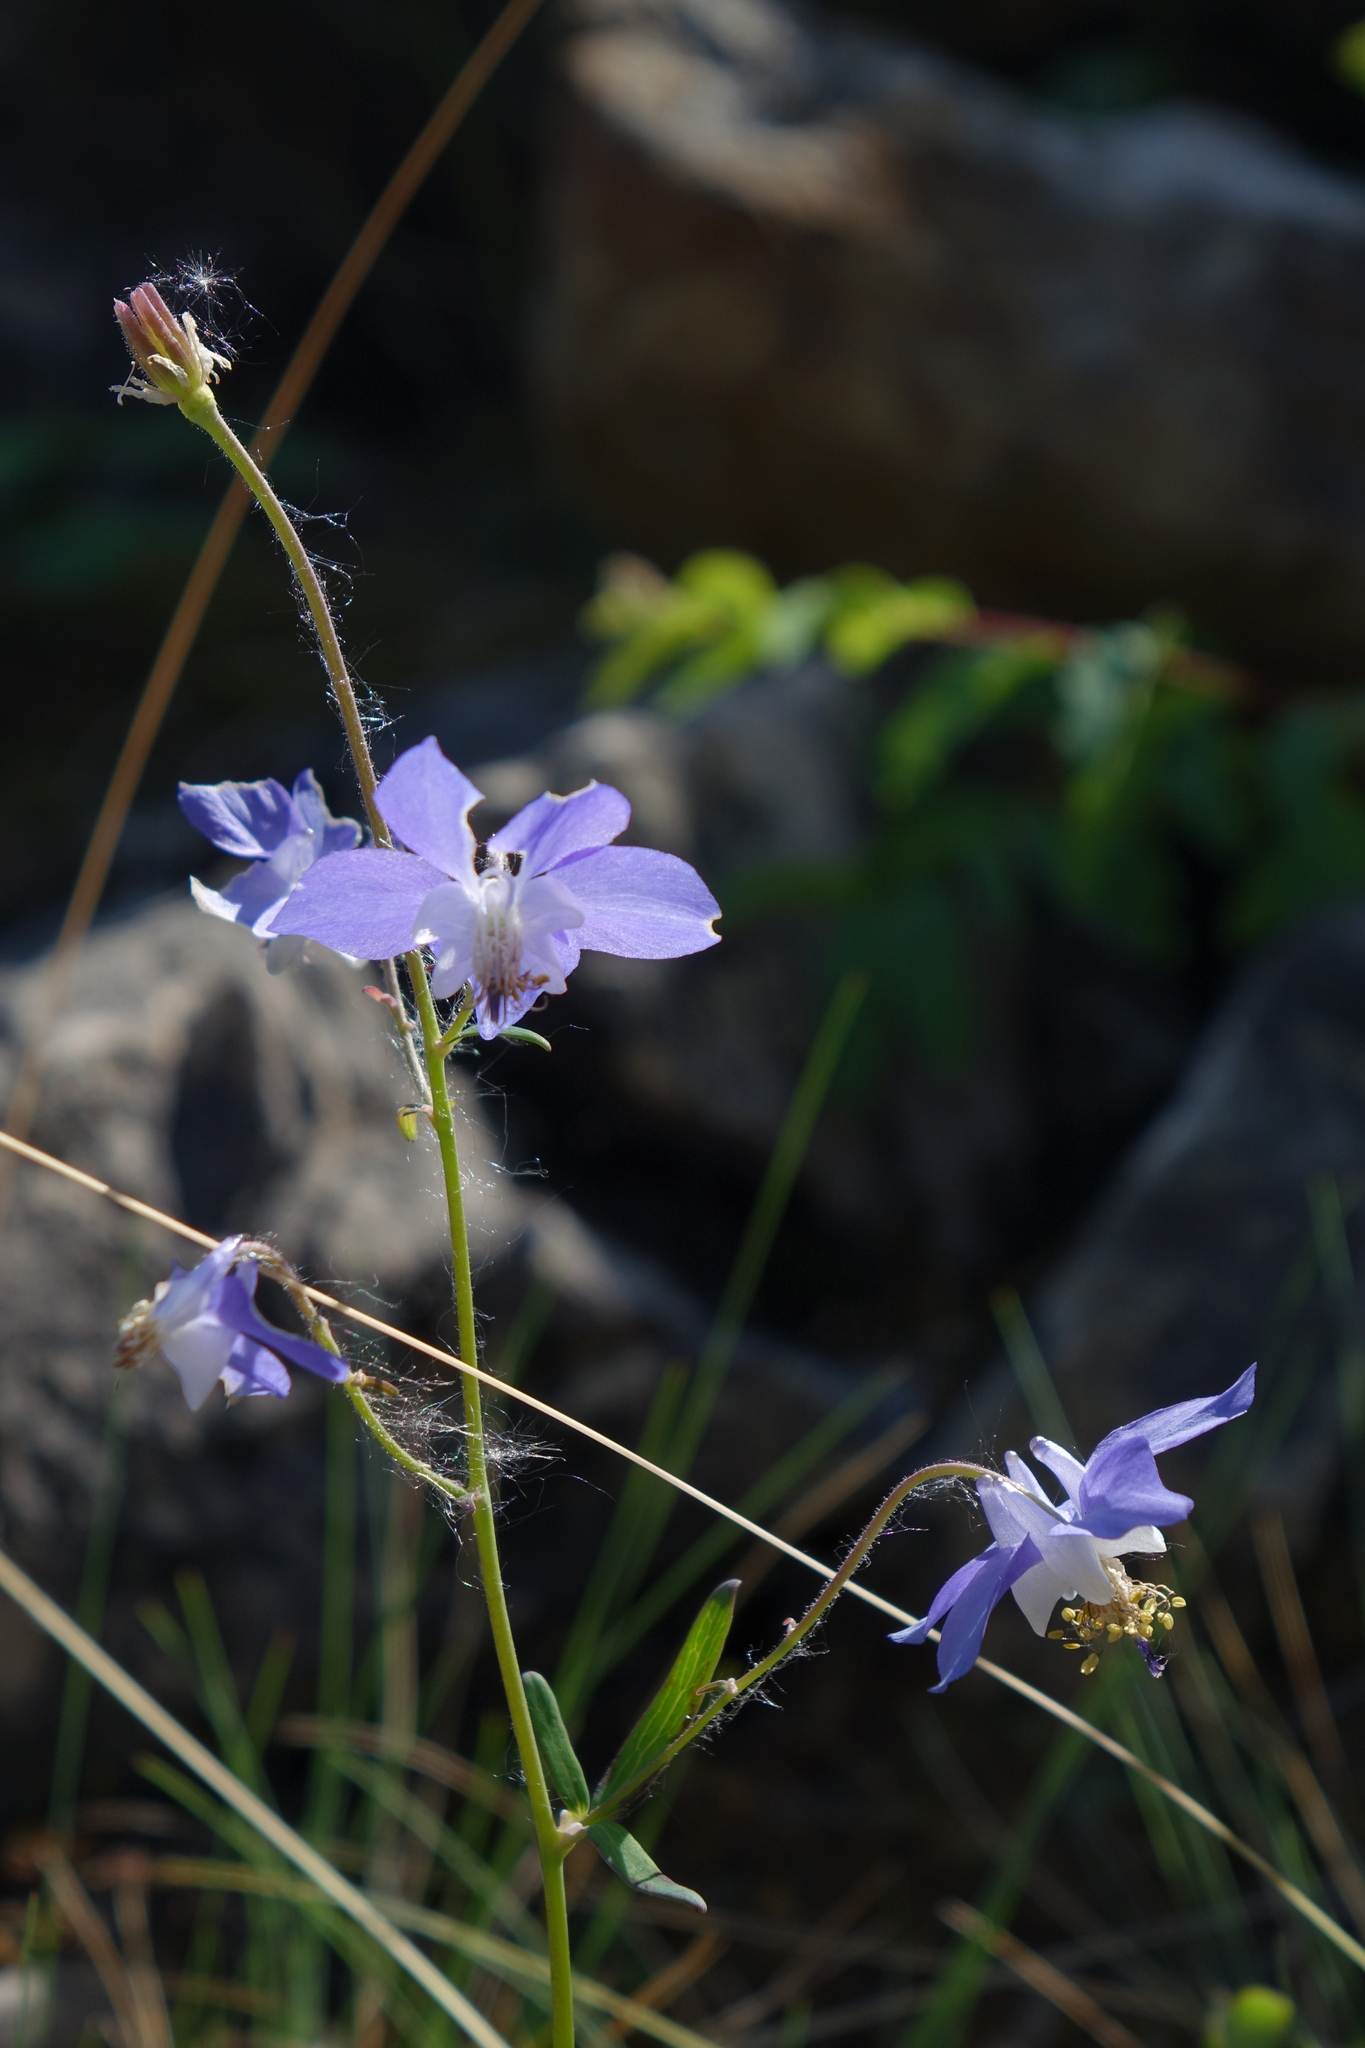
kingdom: Plantae
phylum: Tracheophyta
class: Magnoliopsida
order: Ranunculales
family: Ranunculaceae
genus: Aquilegia
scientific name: Aquilegia parviflora
